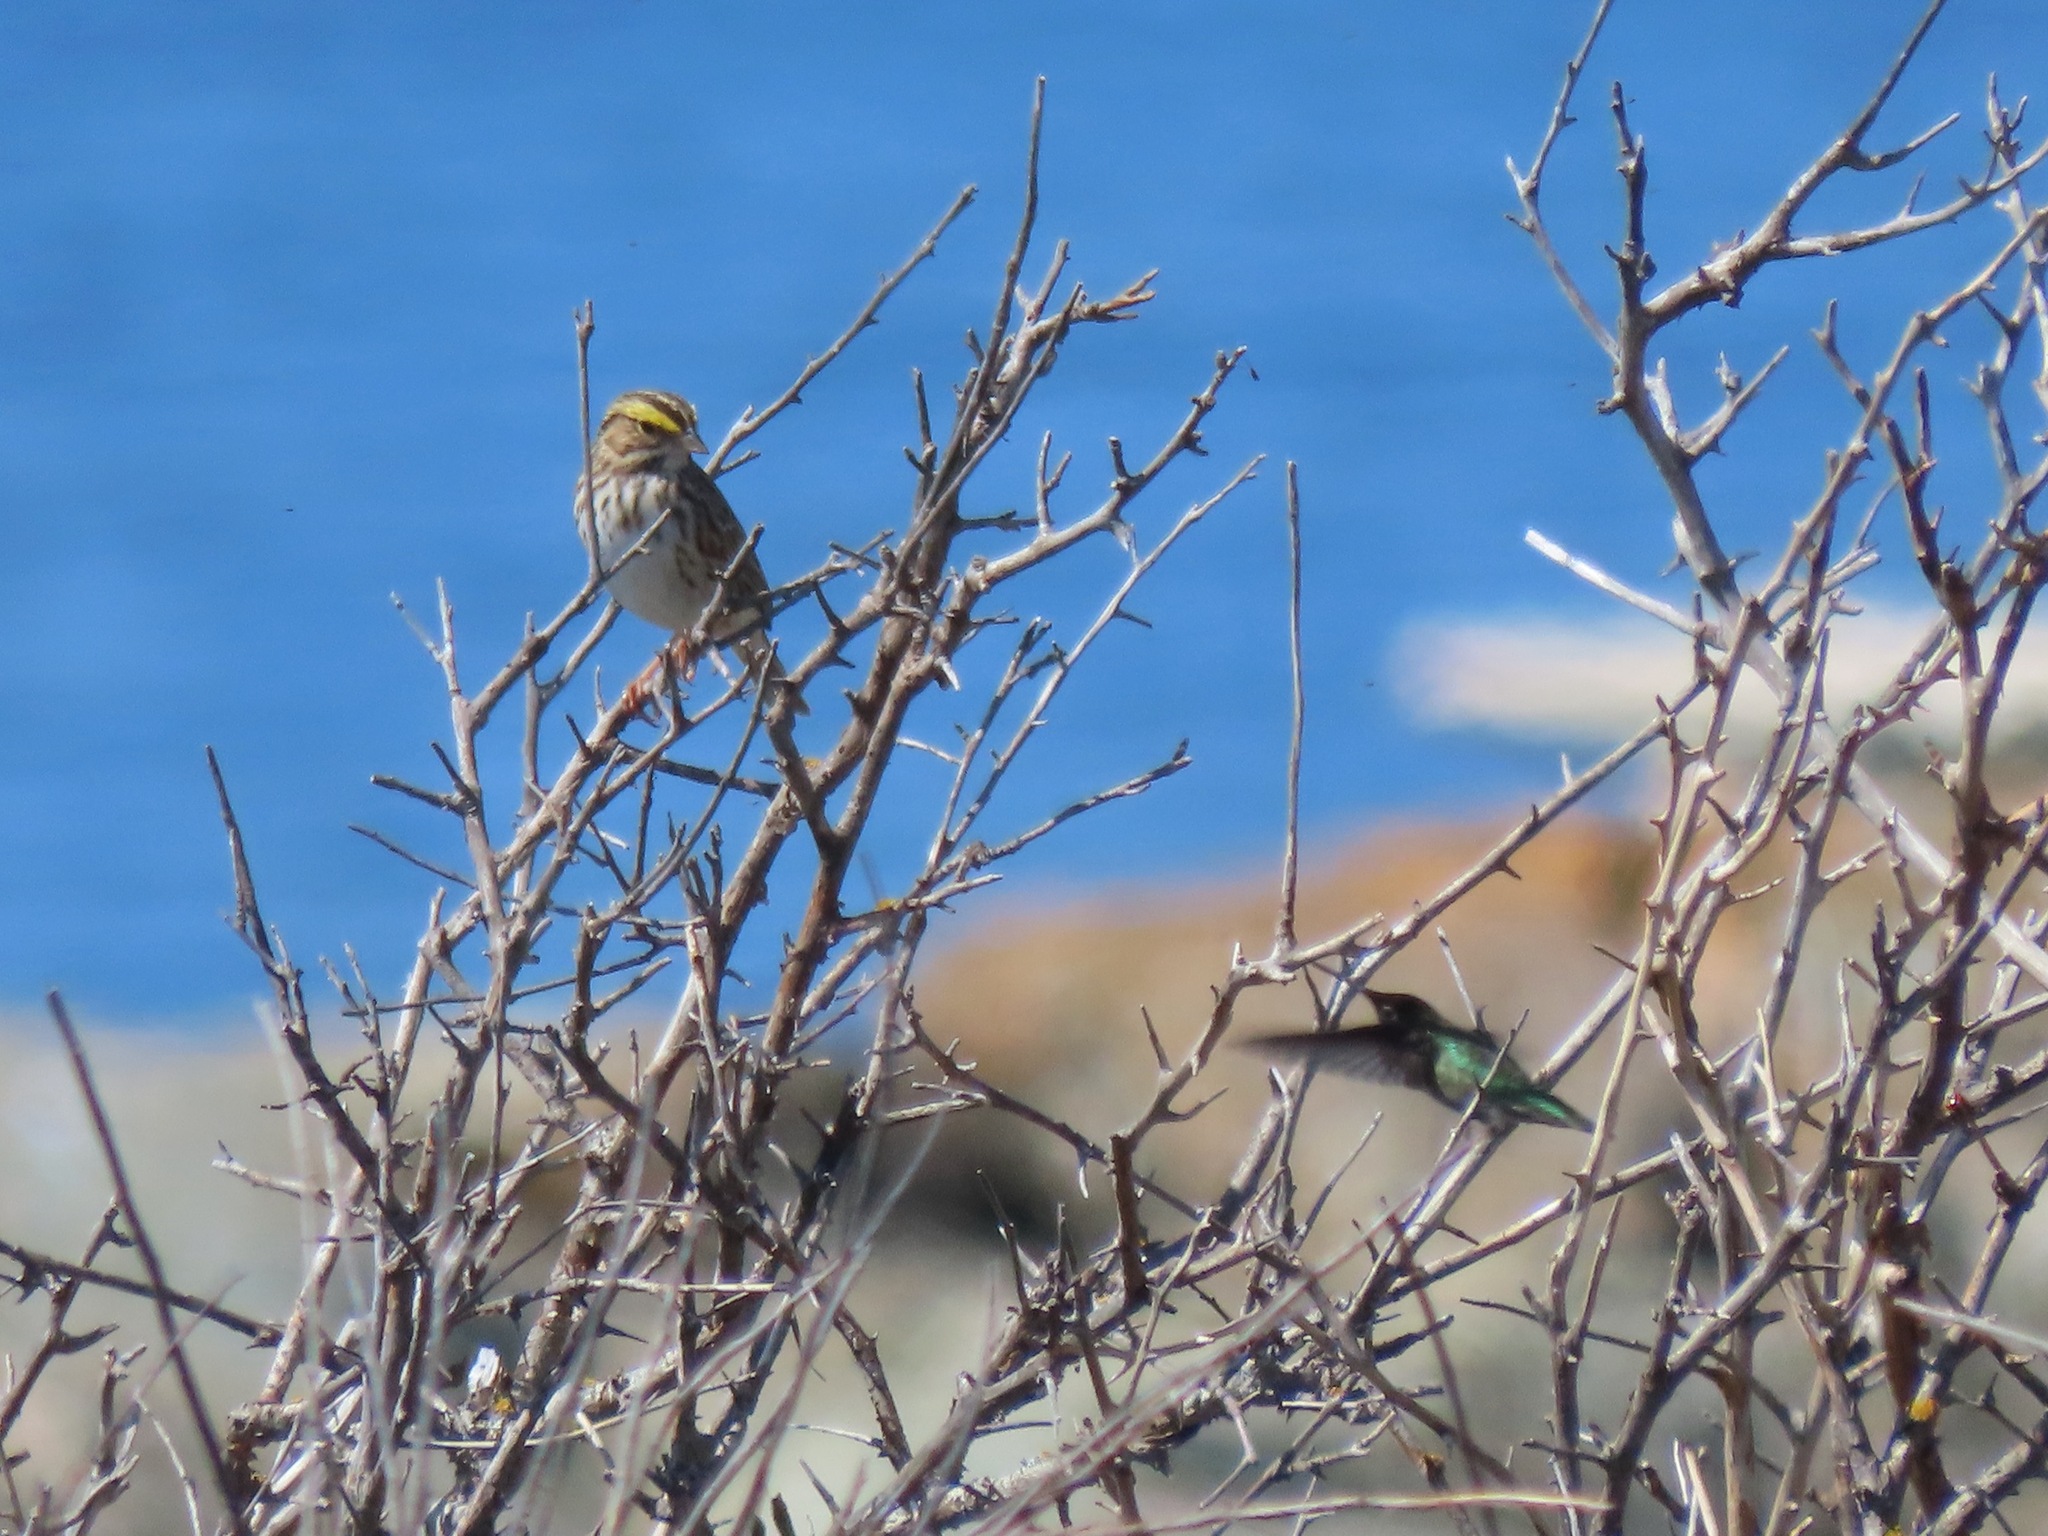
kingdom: Animalia
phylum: Chordata
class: Aves
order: Apodiformes
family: Trochilidae
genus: Calypte
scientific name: Calypte anna
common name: Anna's hummingbird
